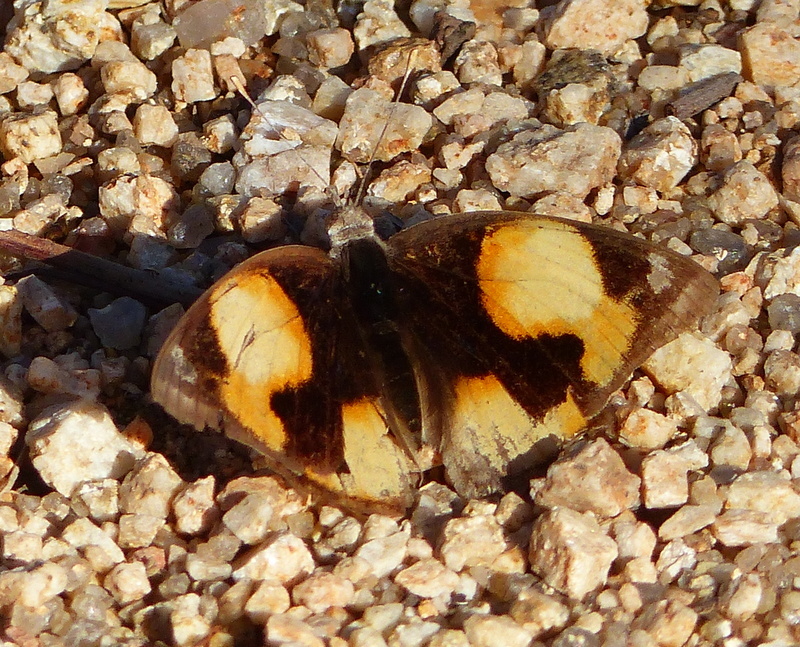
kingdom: Animalia
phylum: Arthropoda
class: Insecta
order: Lepidoptera
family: Nymphalidae
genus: Junonia
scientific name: Junonia hierta
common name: Yellow pansy
